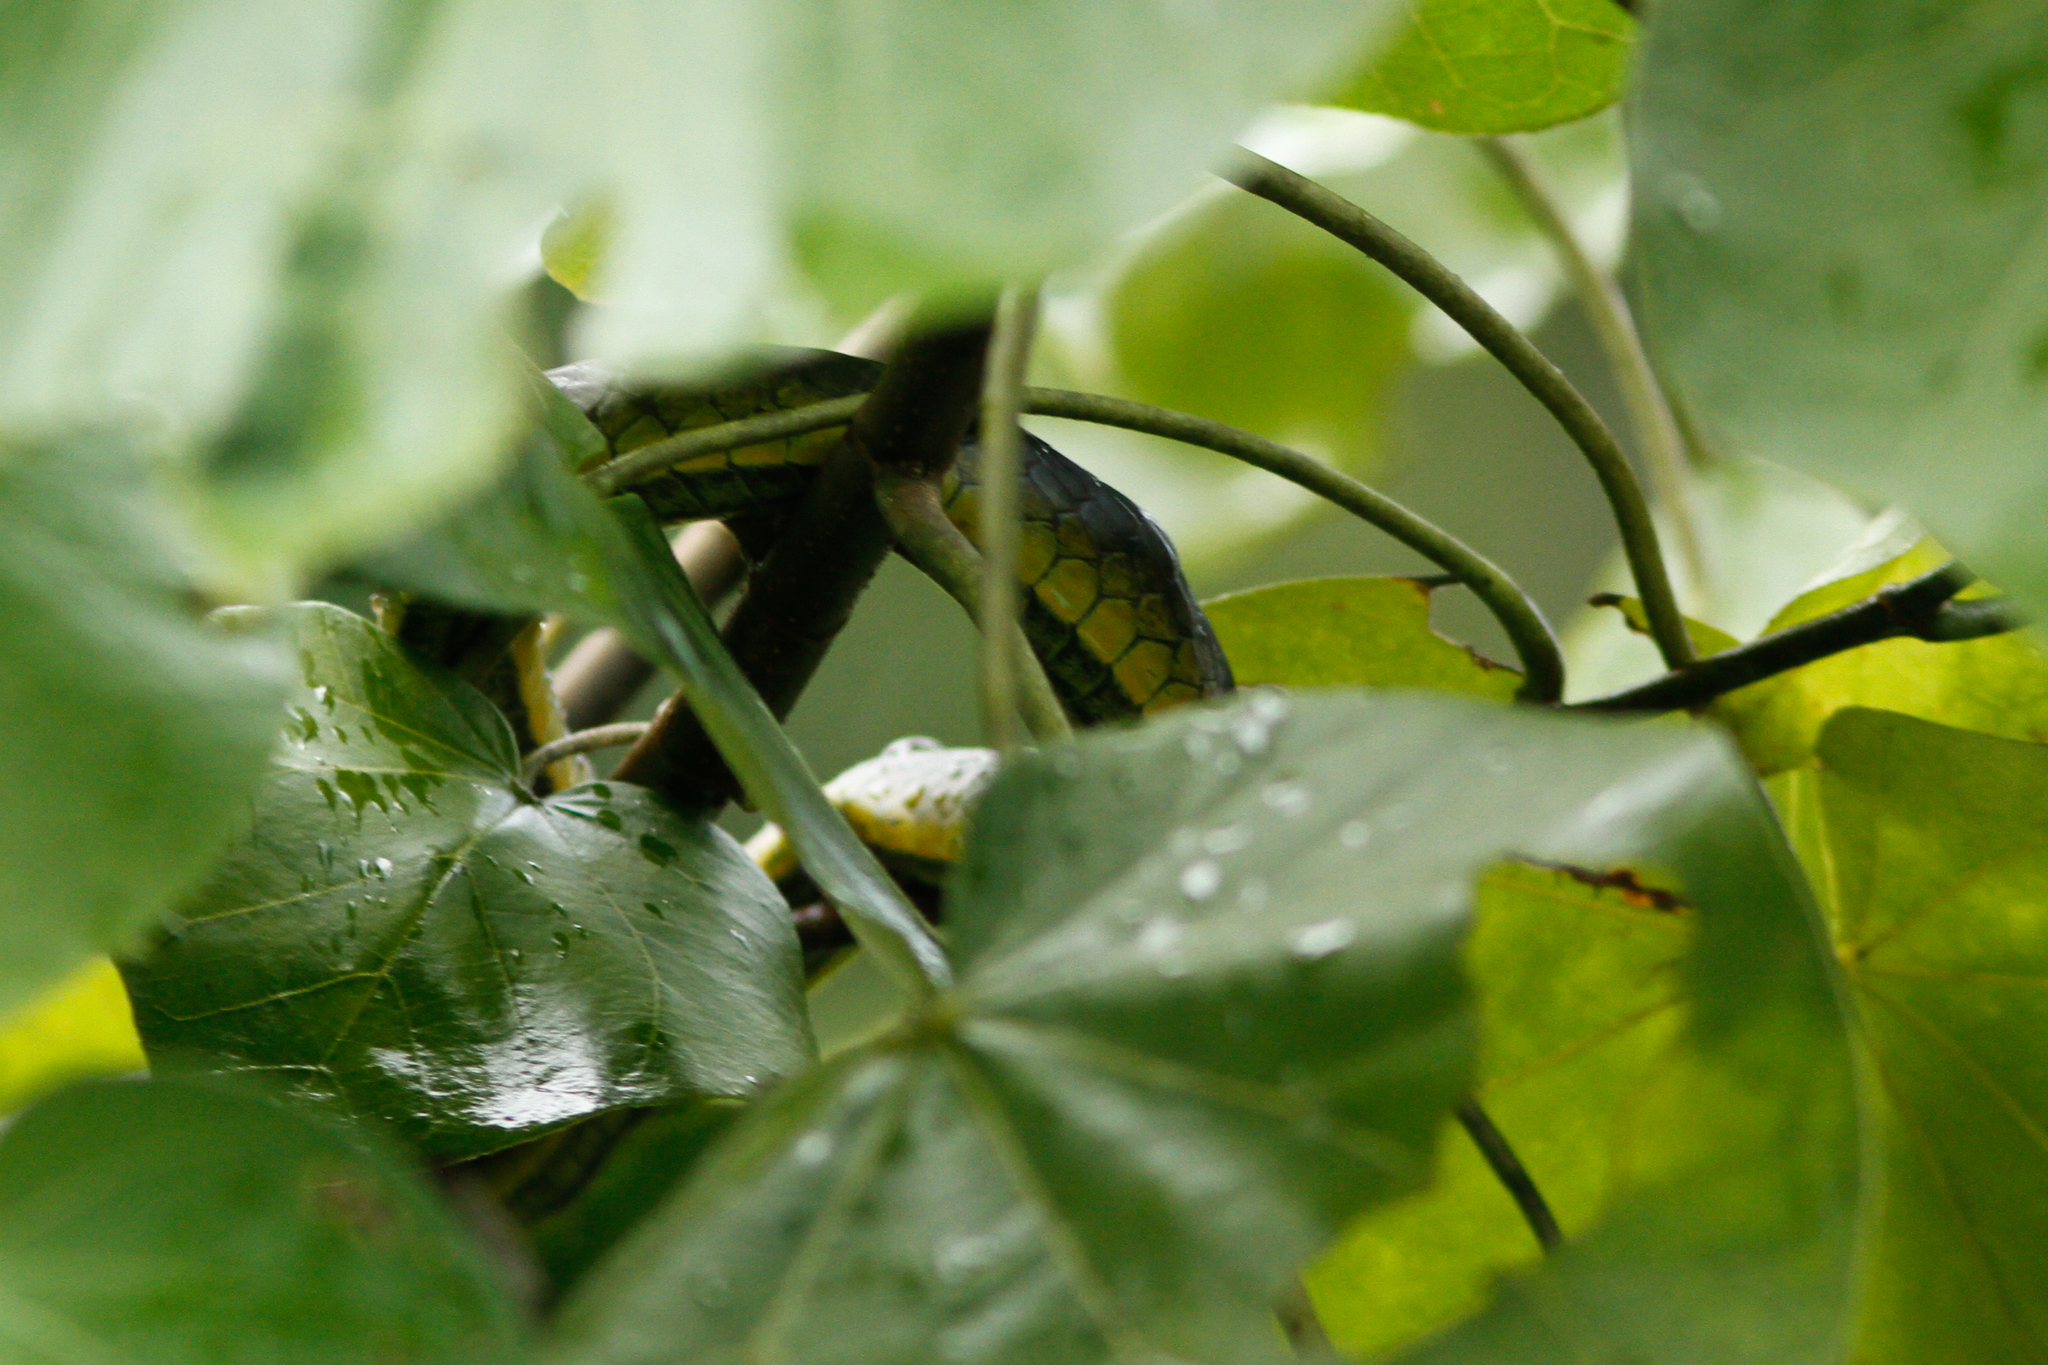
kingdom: Animalia
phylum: Chordata
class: Squamata
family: Colubridae
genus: Dendrelaphis
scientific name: Dendrelaphis punctulatus
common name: Common tree snake
